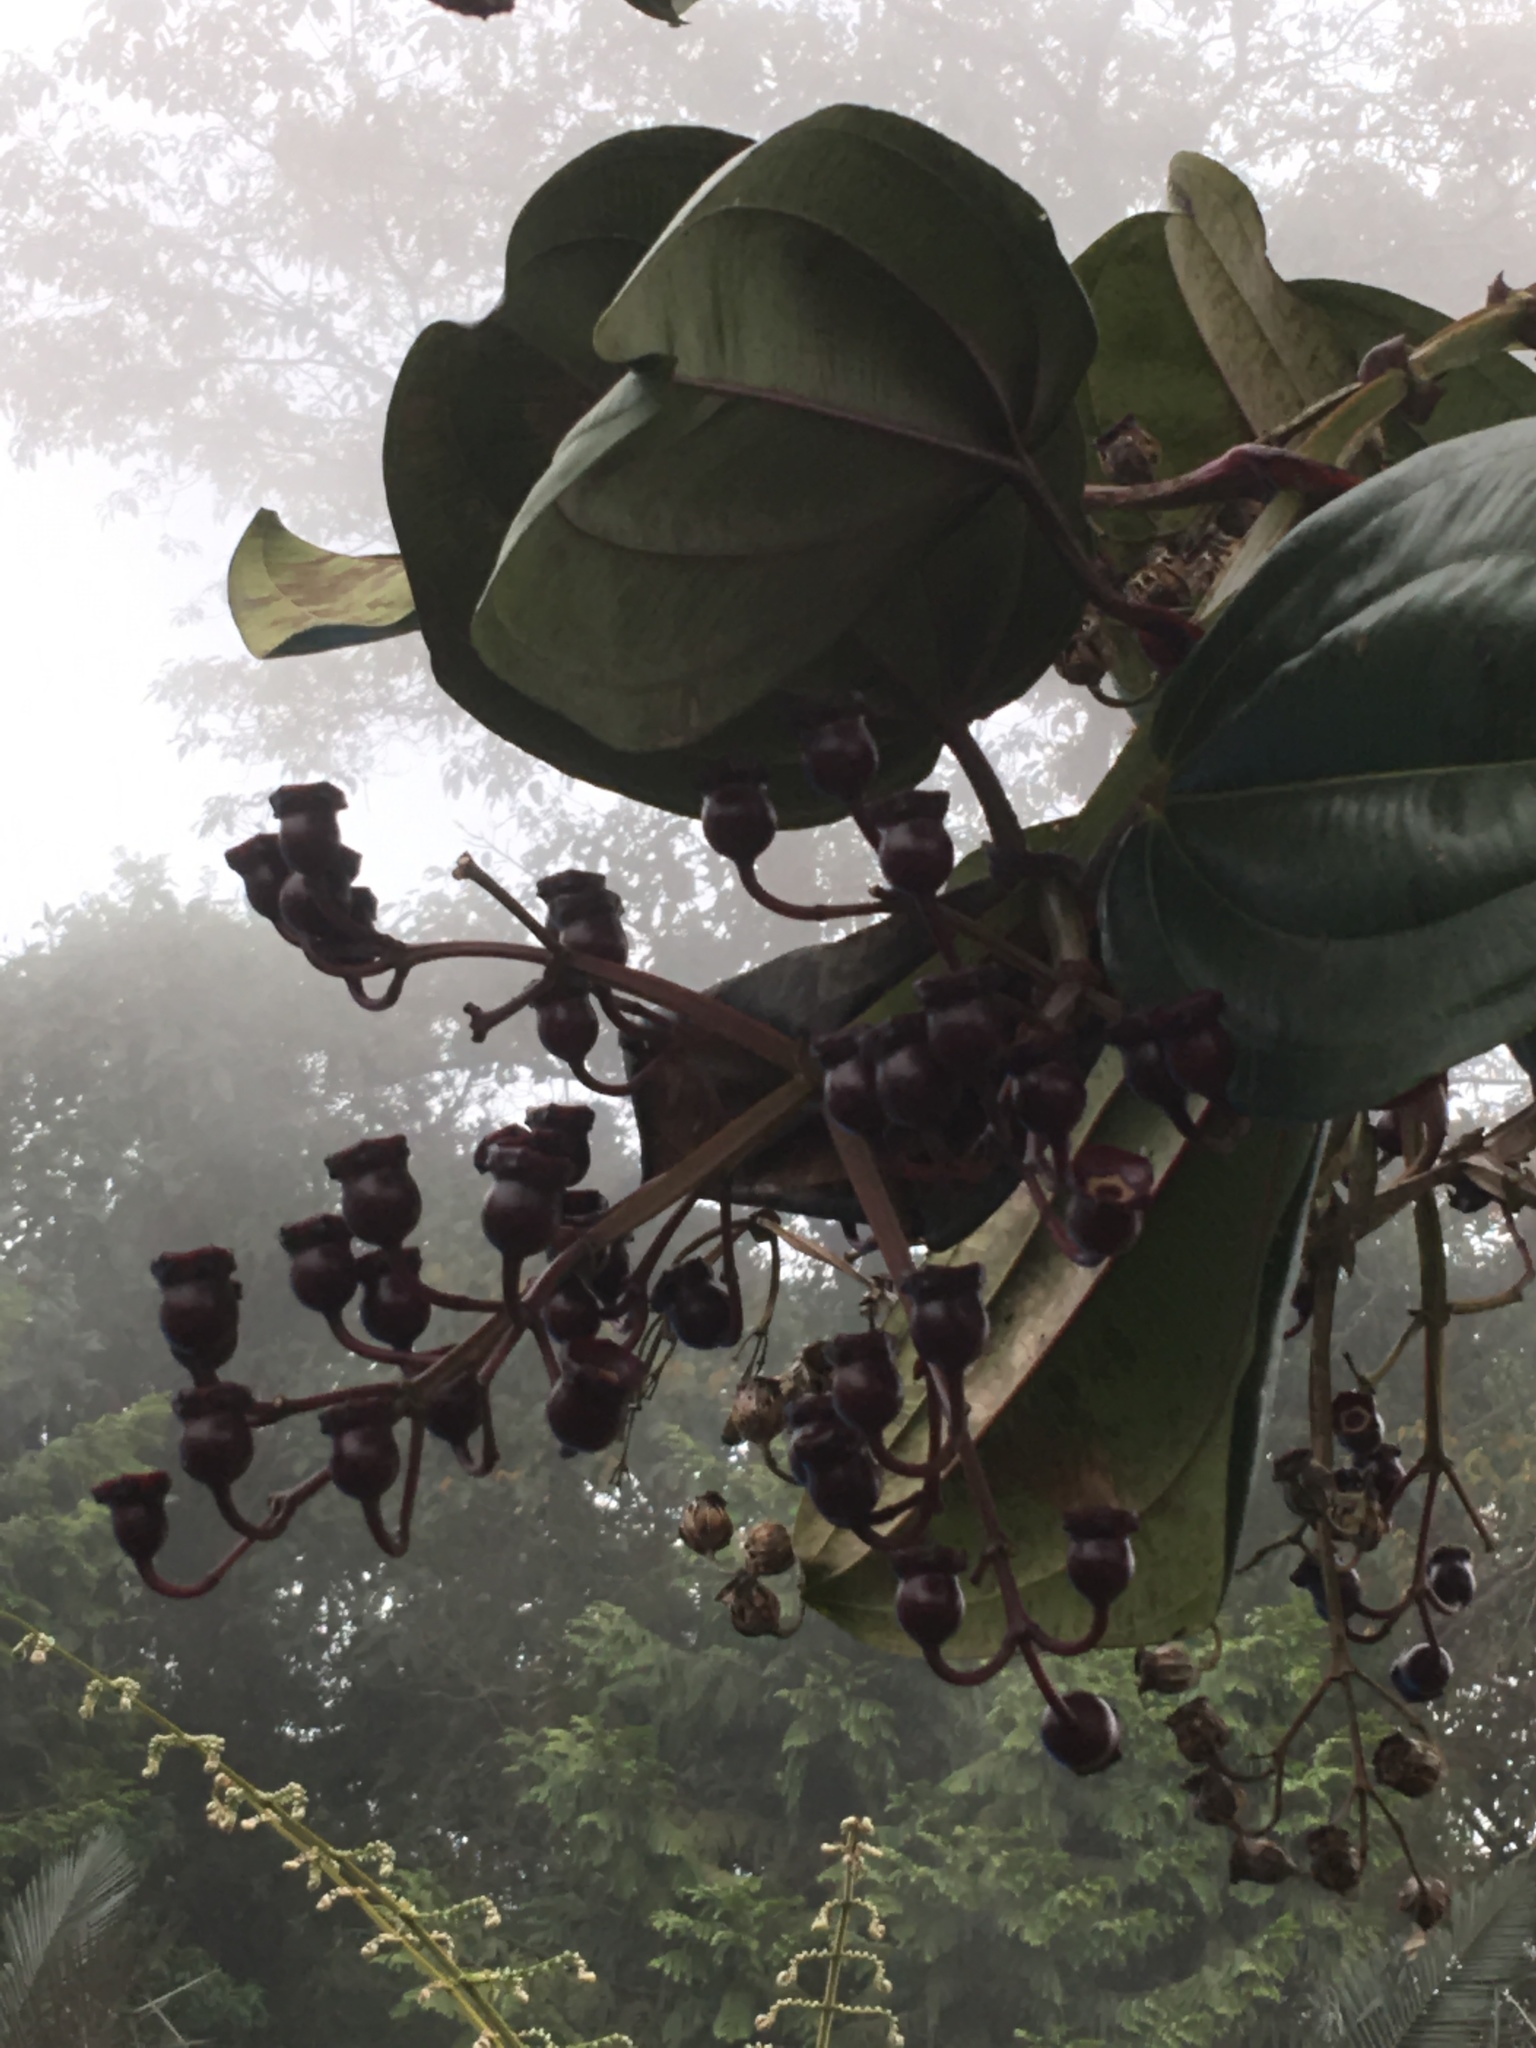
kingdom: Plantae
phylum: Tracheophyta
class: Magnoliopsida
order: Myrtales
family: Melastomataceae
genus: Meriania
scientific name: Meriania nobilis
